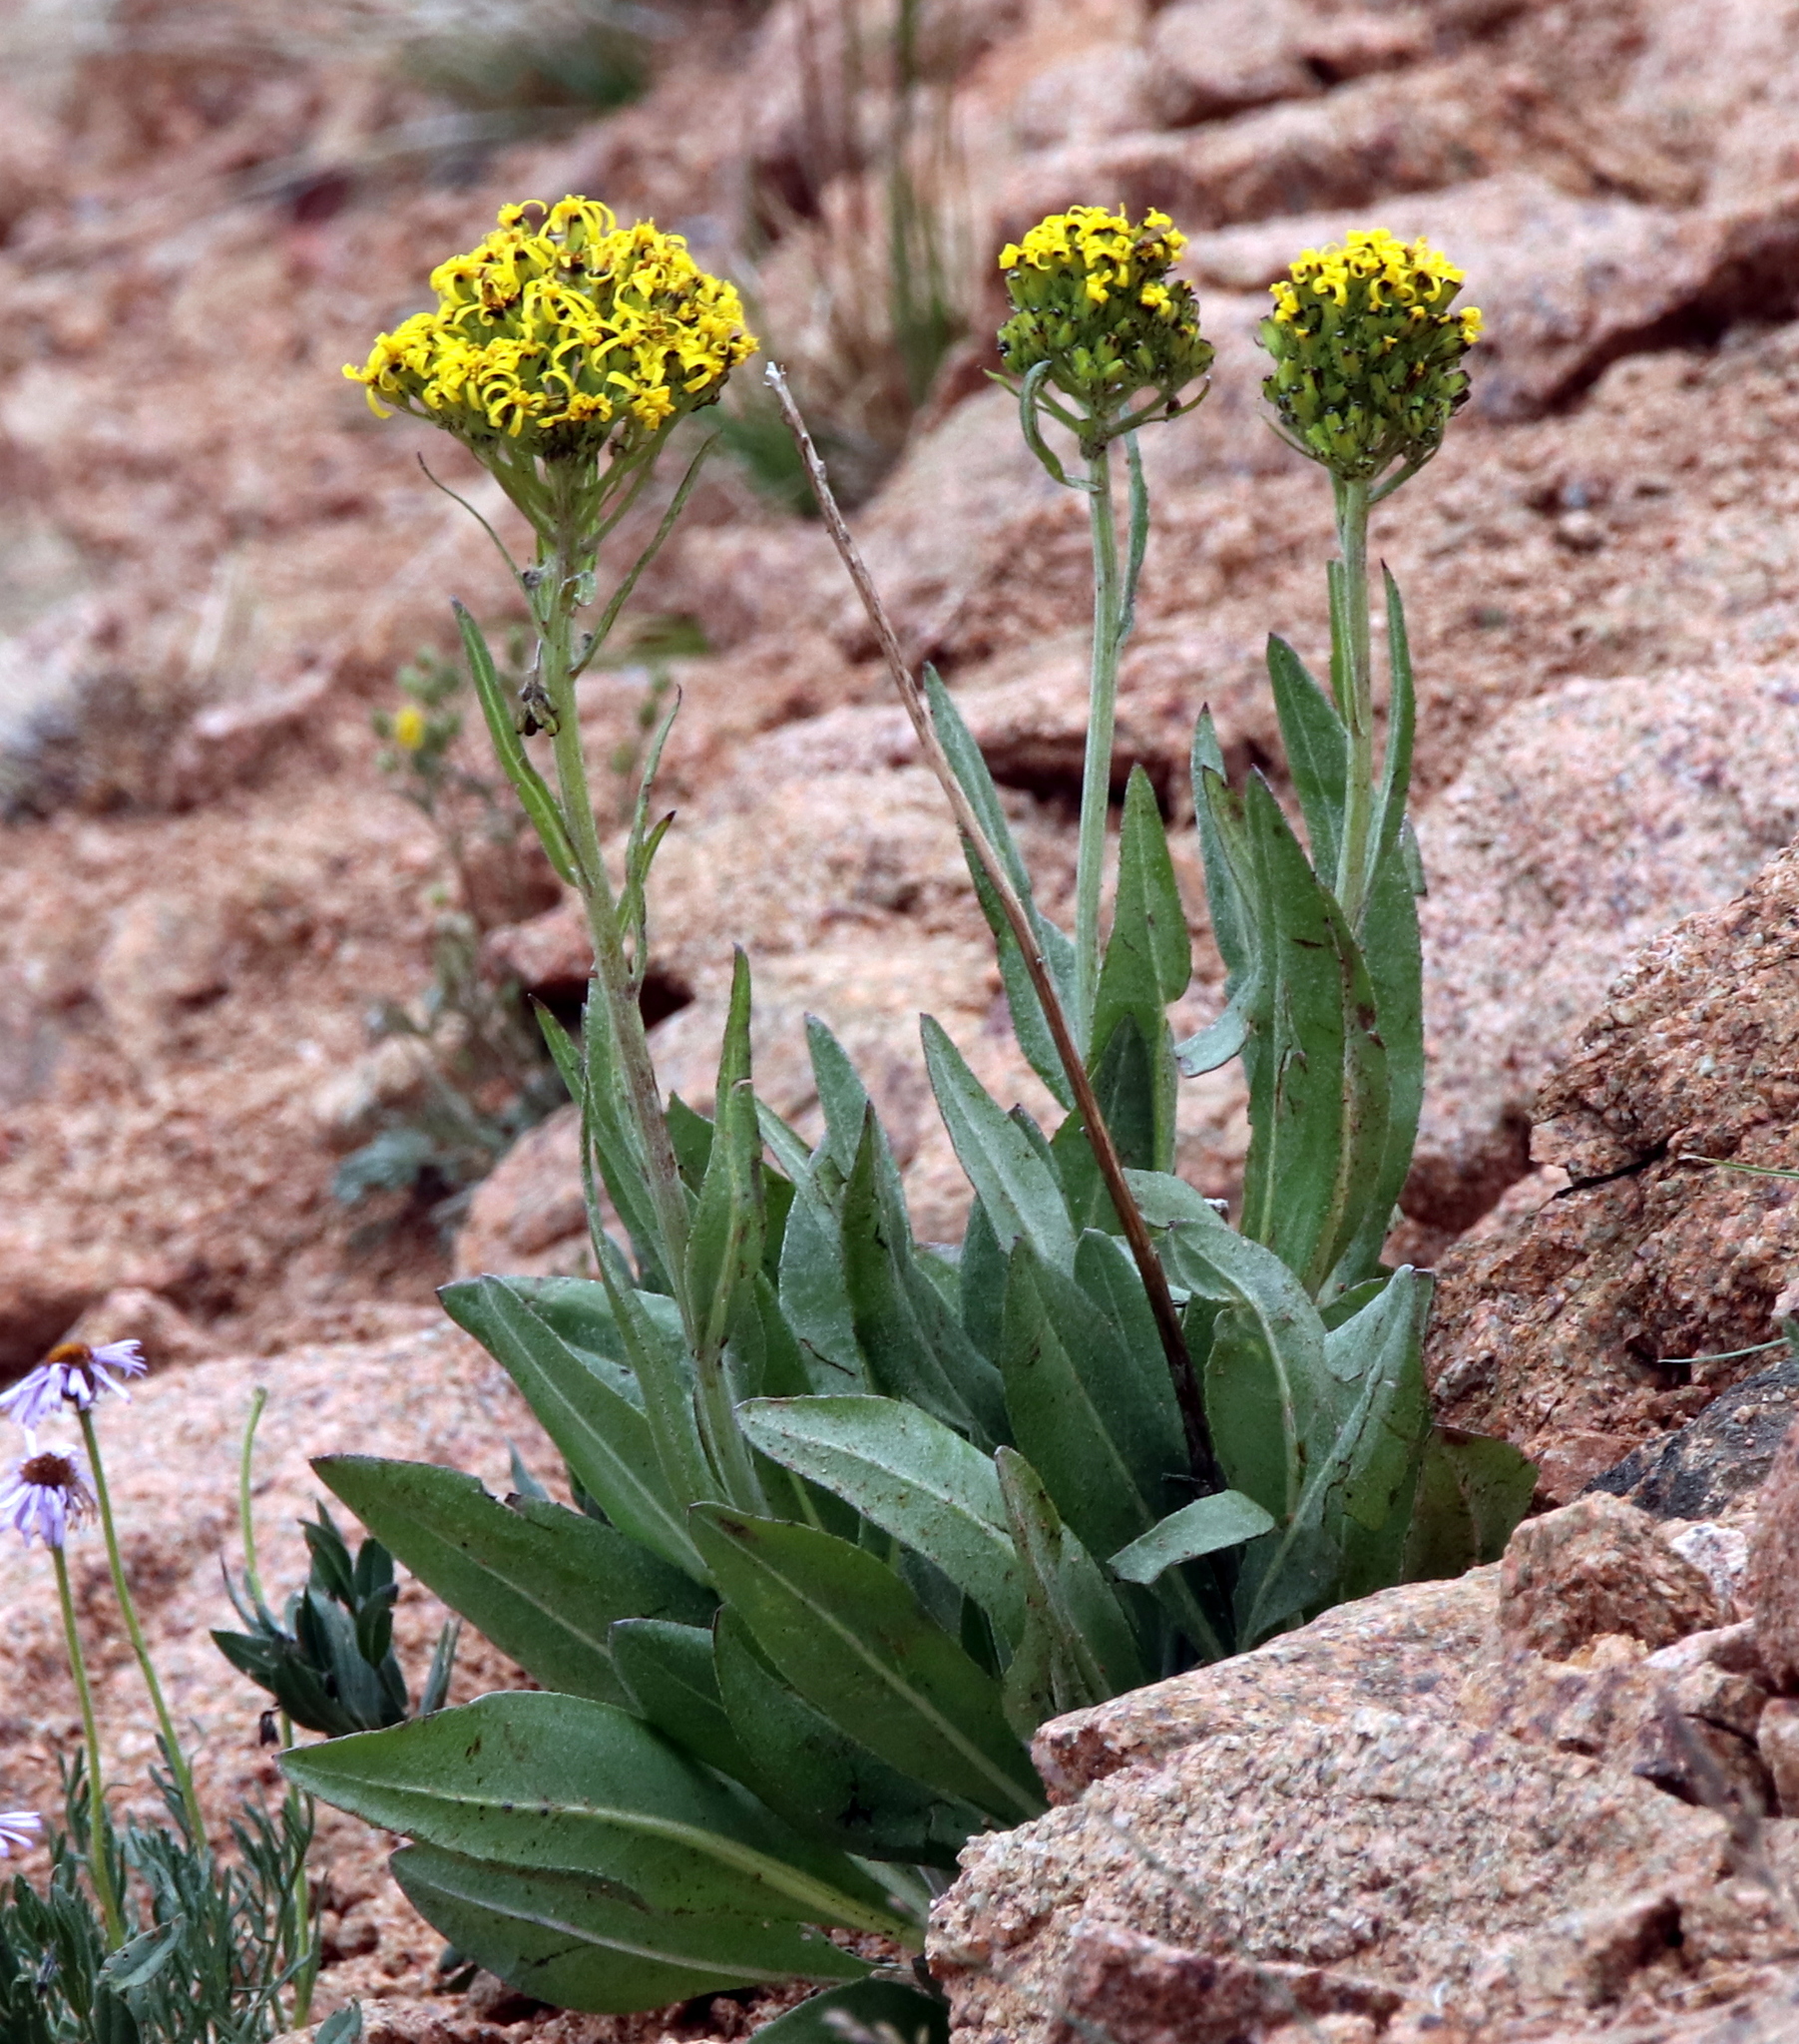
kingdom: Plantae
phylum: Tracheophyta
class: Magnoliopsida
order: Asterales
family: Asteraceae
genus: Senecio
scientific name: Senecio atratus
